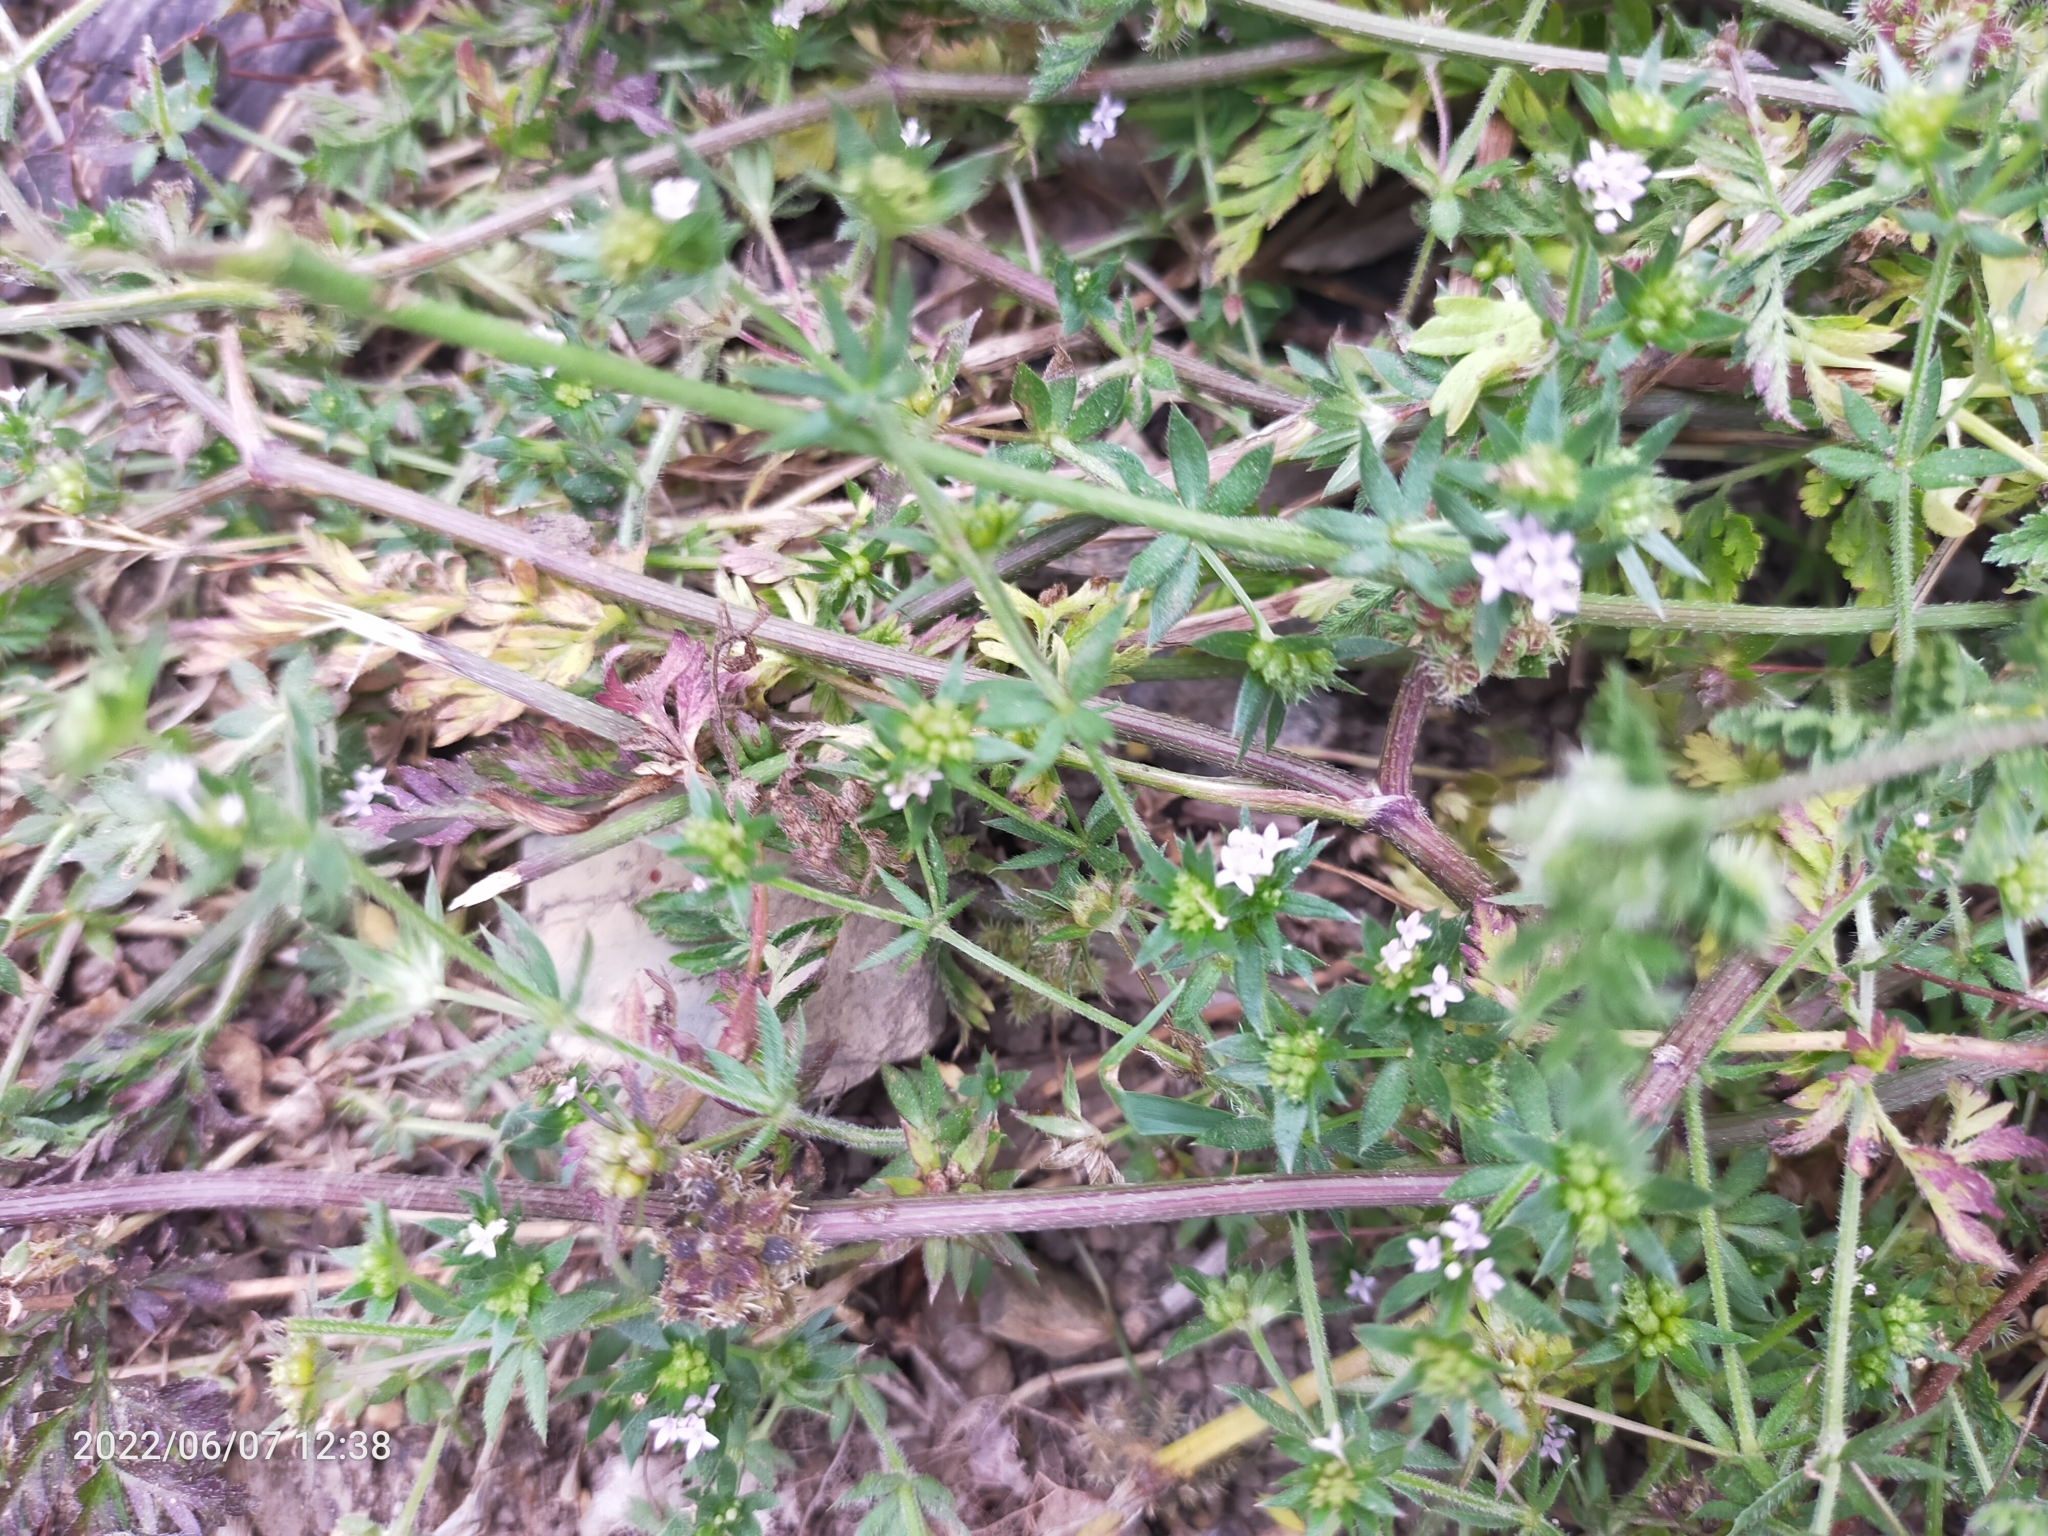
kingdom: Plantae
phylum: Tracheophyta
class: Magnoliopsida
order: Gentianales
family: Rubiaceae
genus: Sherardia
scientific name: Sherardia arvensis
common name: Field madder
